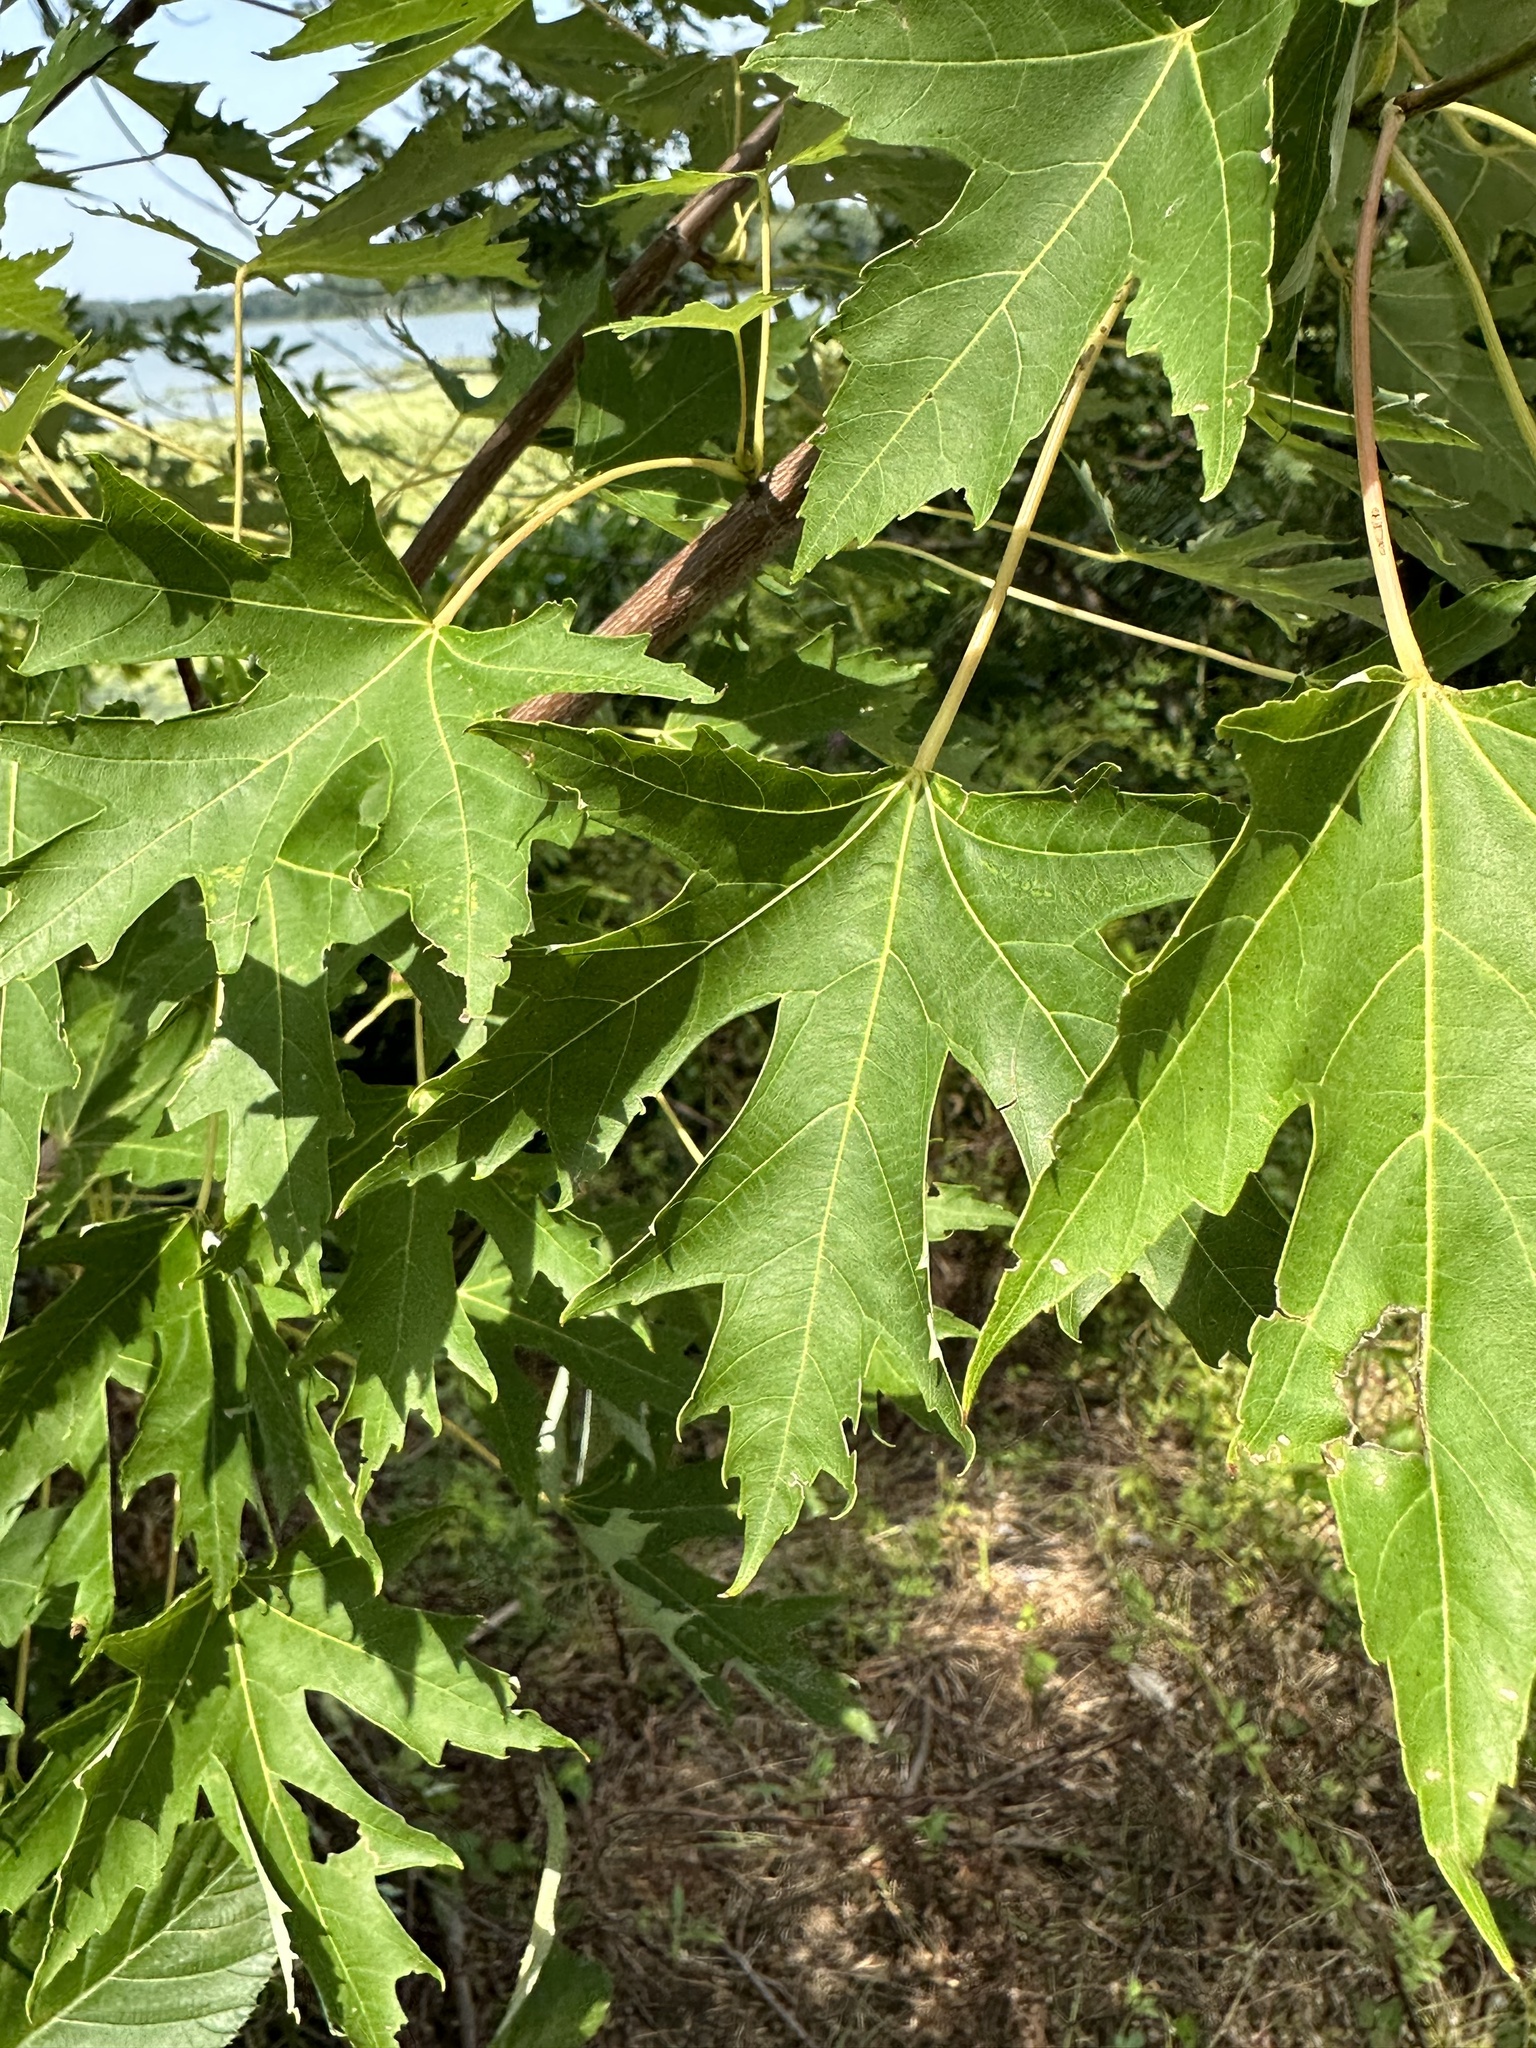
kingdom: Plantae
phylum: Tracheophyta
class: Magnoliopsida
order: Sapindales
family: Sapindaceae
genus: Acer
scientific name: Acer saccharinum
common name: Silver maple
